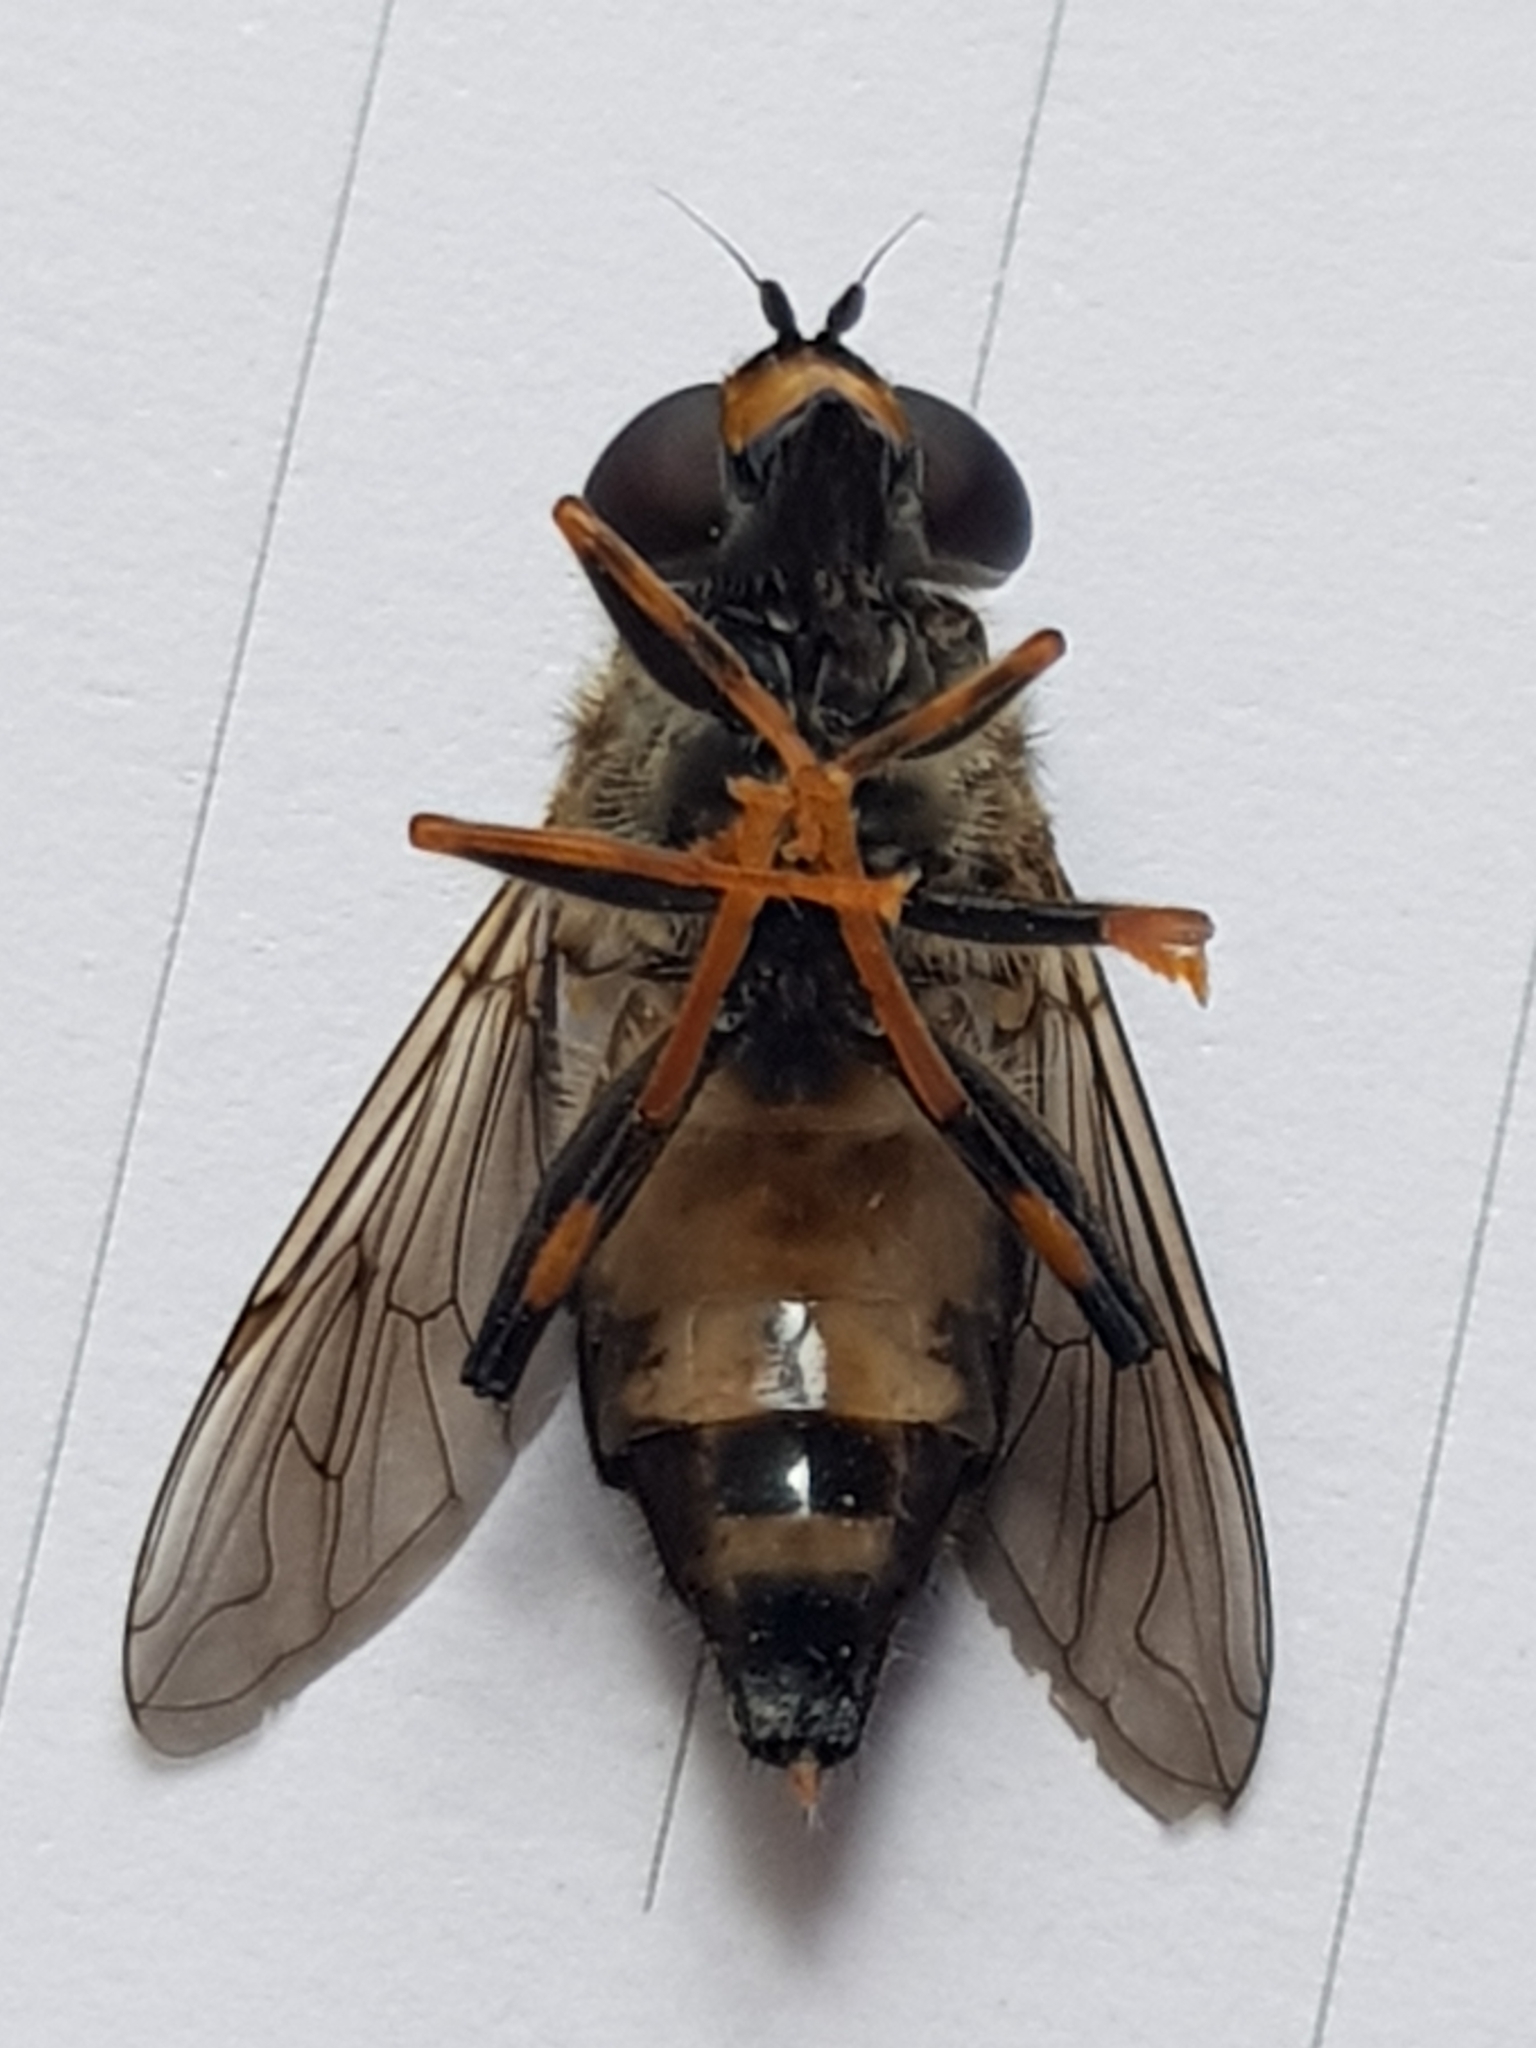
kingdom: Animalia
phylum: Arthropoda
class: Insecta
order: Diptera
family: Syrphidae
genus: Helophilus
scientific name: Helophilus antipodus
